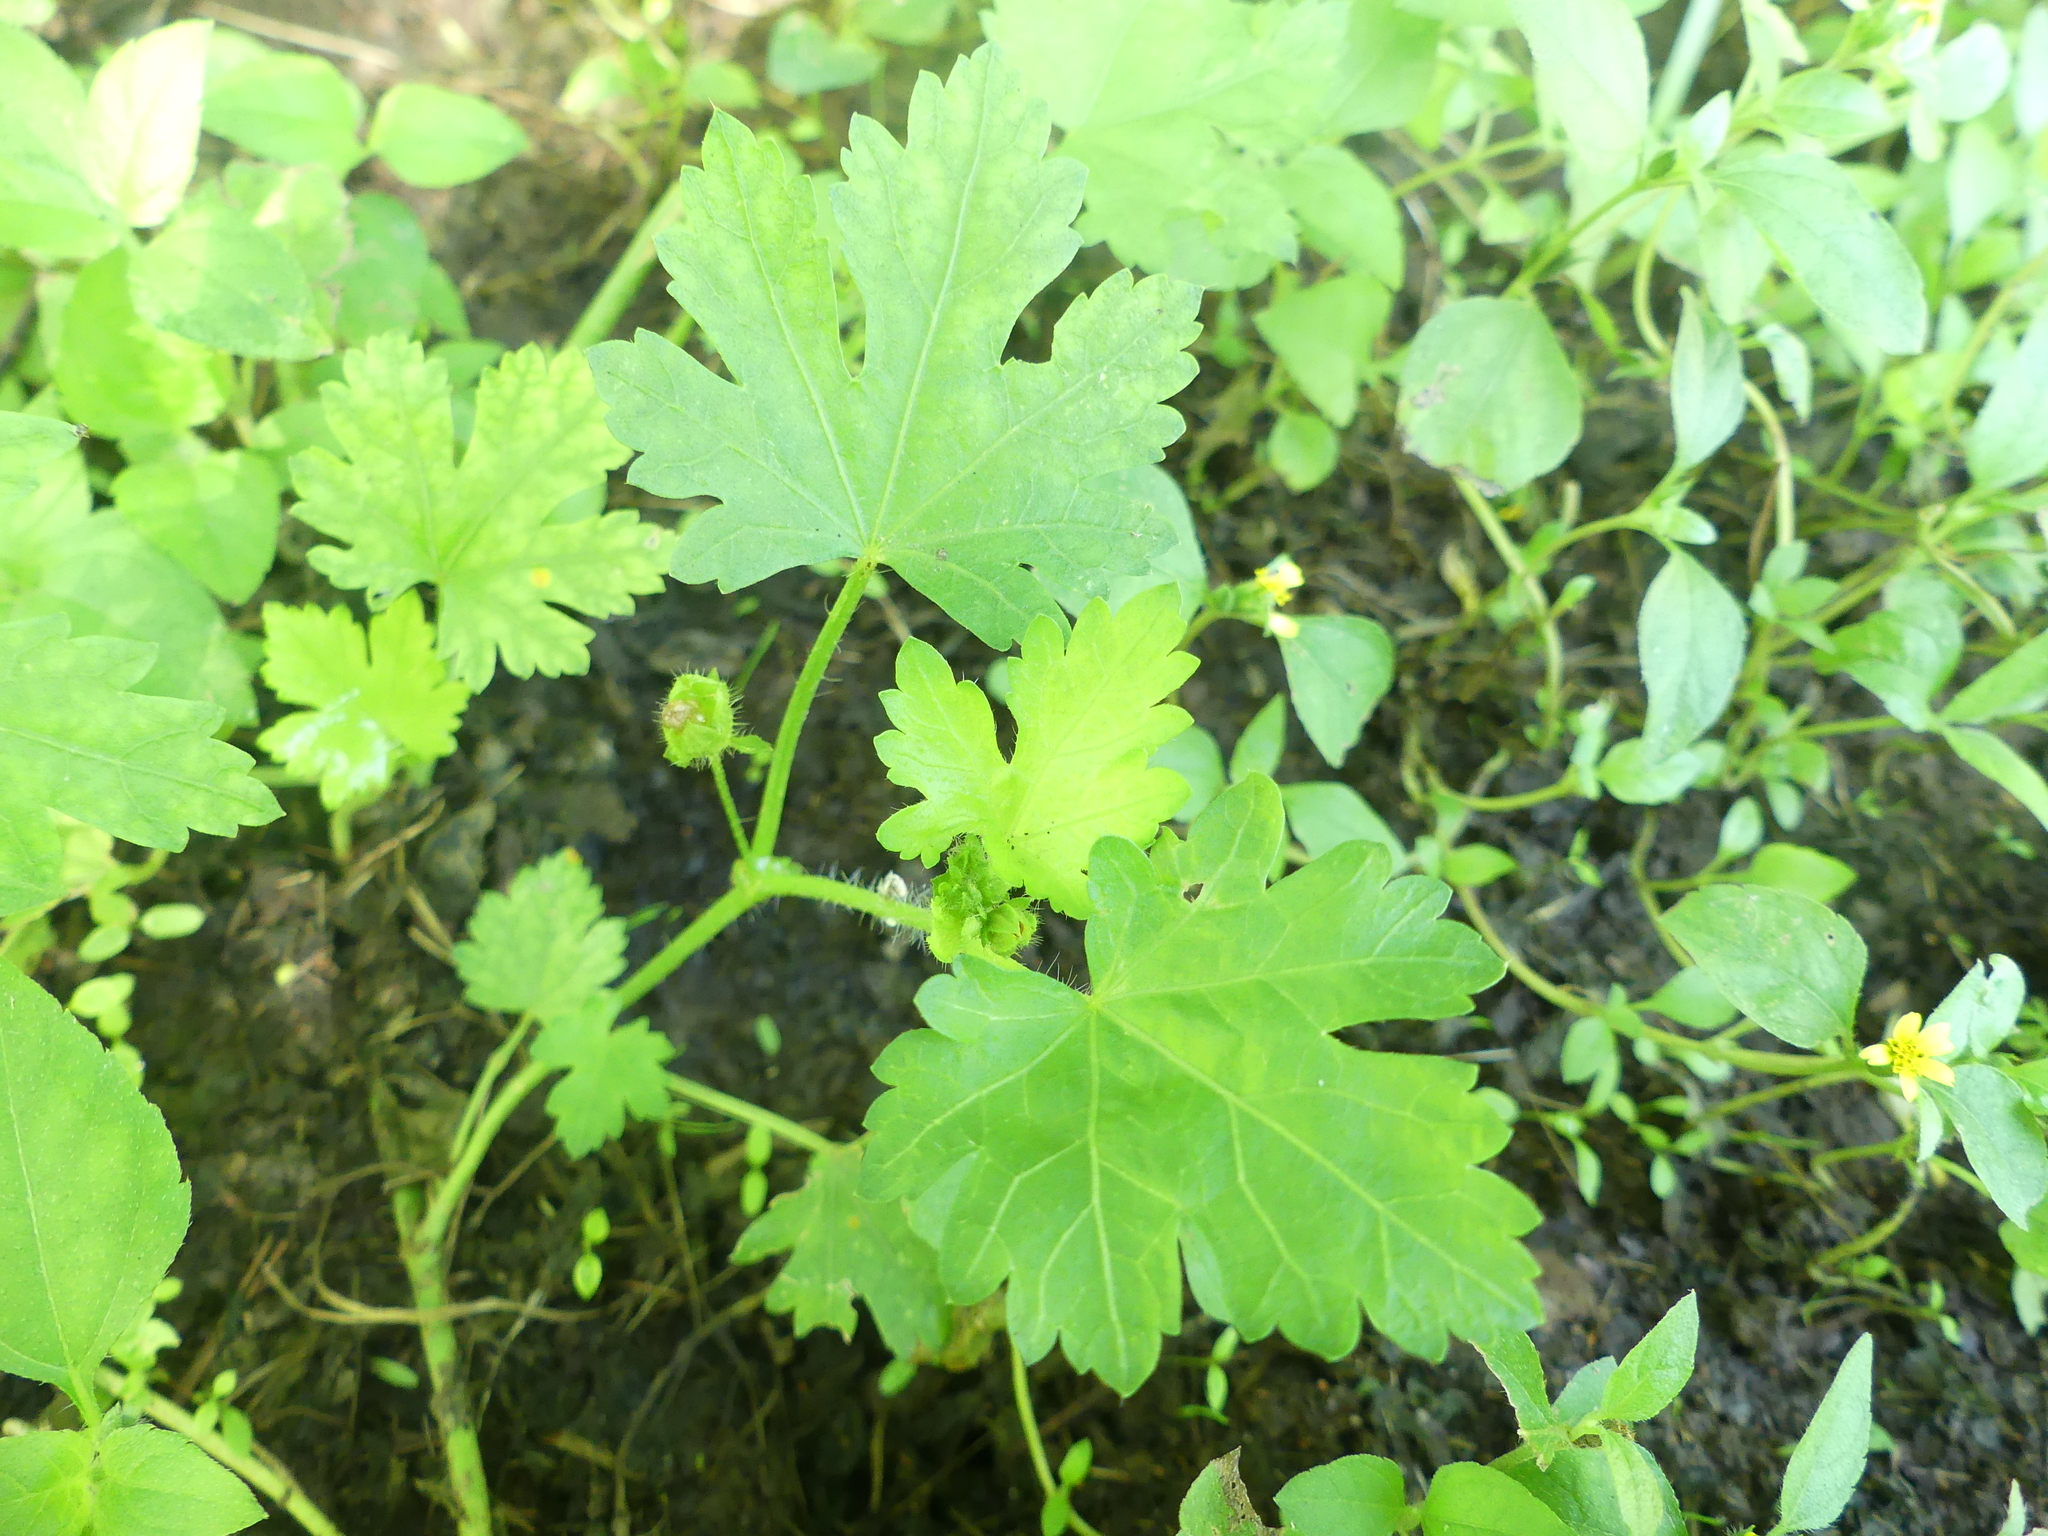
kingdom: Plantae
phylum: Tracheophyta
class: Magnoliopsida
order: Malvales
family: Malvaceae
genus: Modiola
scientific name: Modiola caroliniana
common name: Carolina bristlemallow
